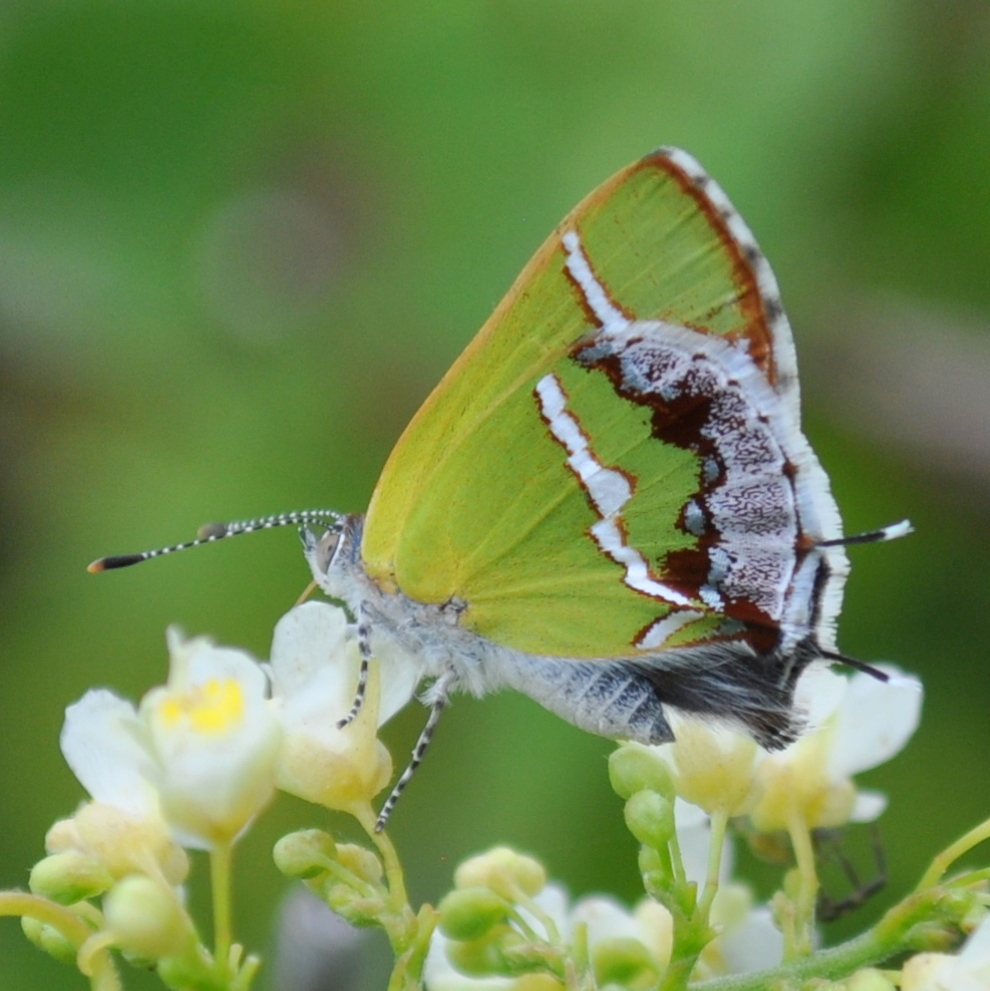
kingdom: Animalia
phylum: Arthropoda
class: Insecta
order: Lepidoptera
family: Lycaenidae
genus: Chlorostrymon
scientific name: Chlorostrymon simaethis
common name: Silver-banded hairstreak
